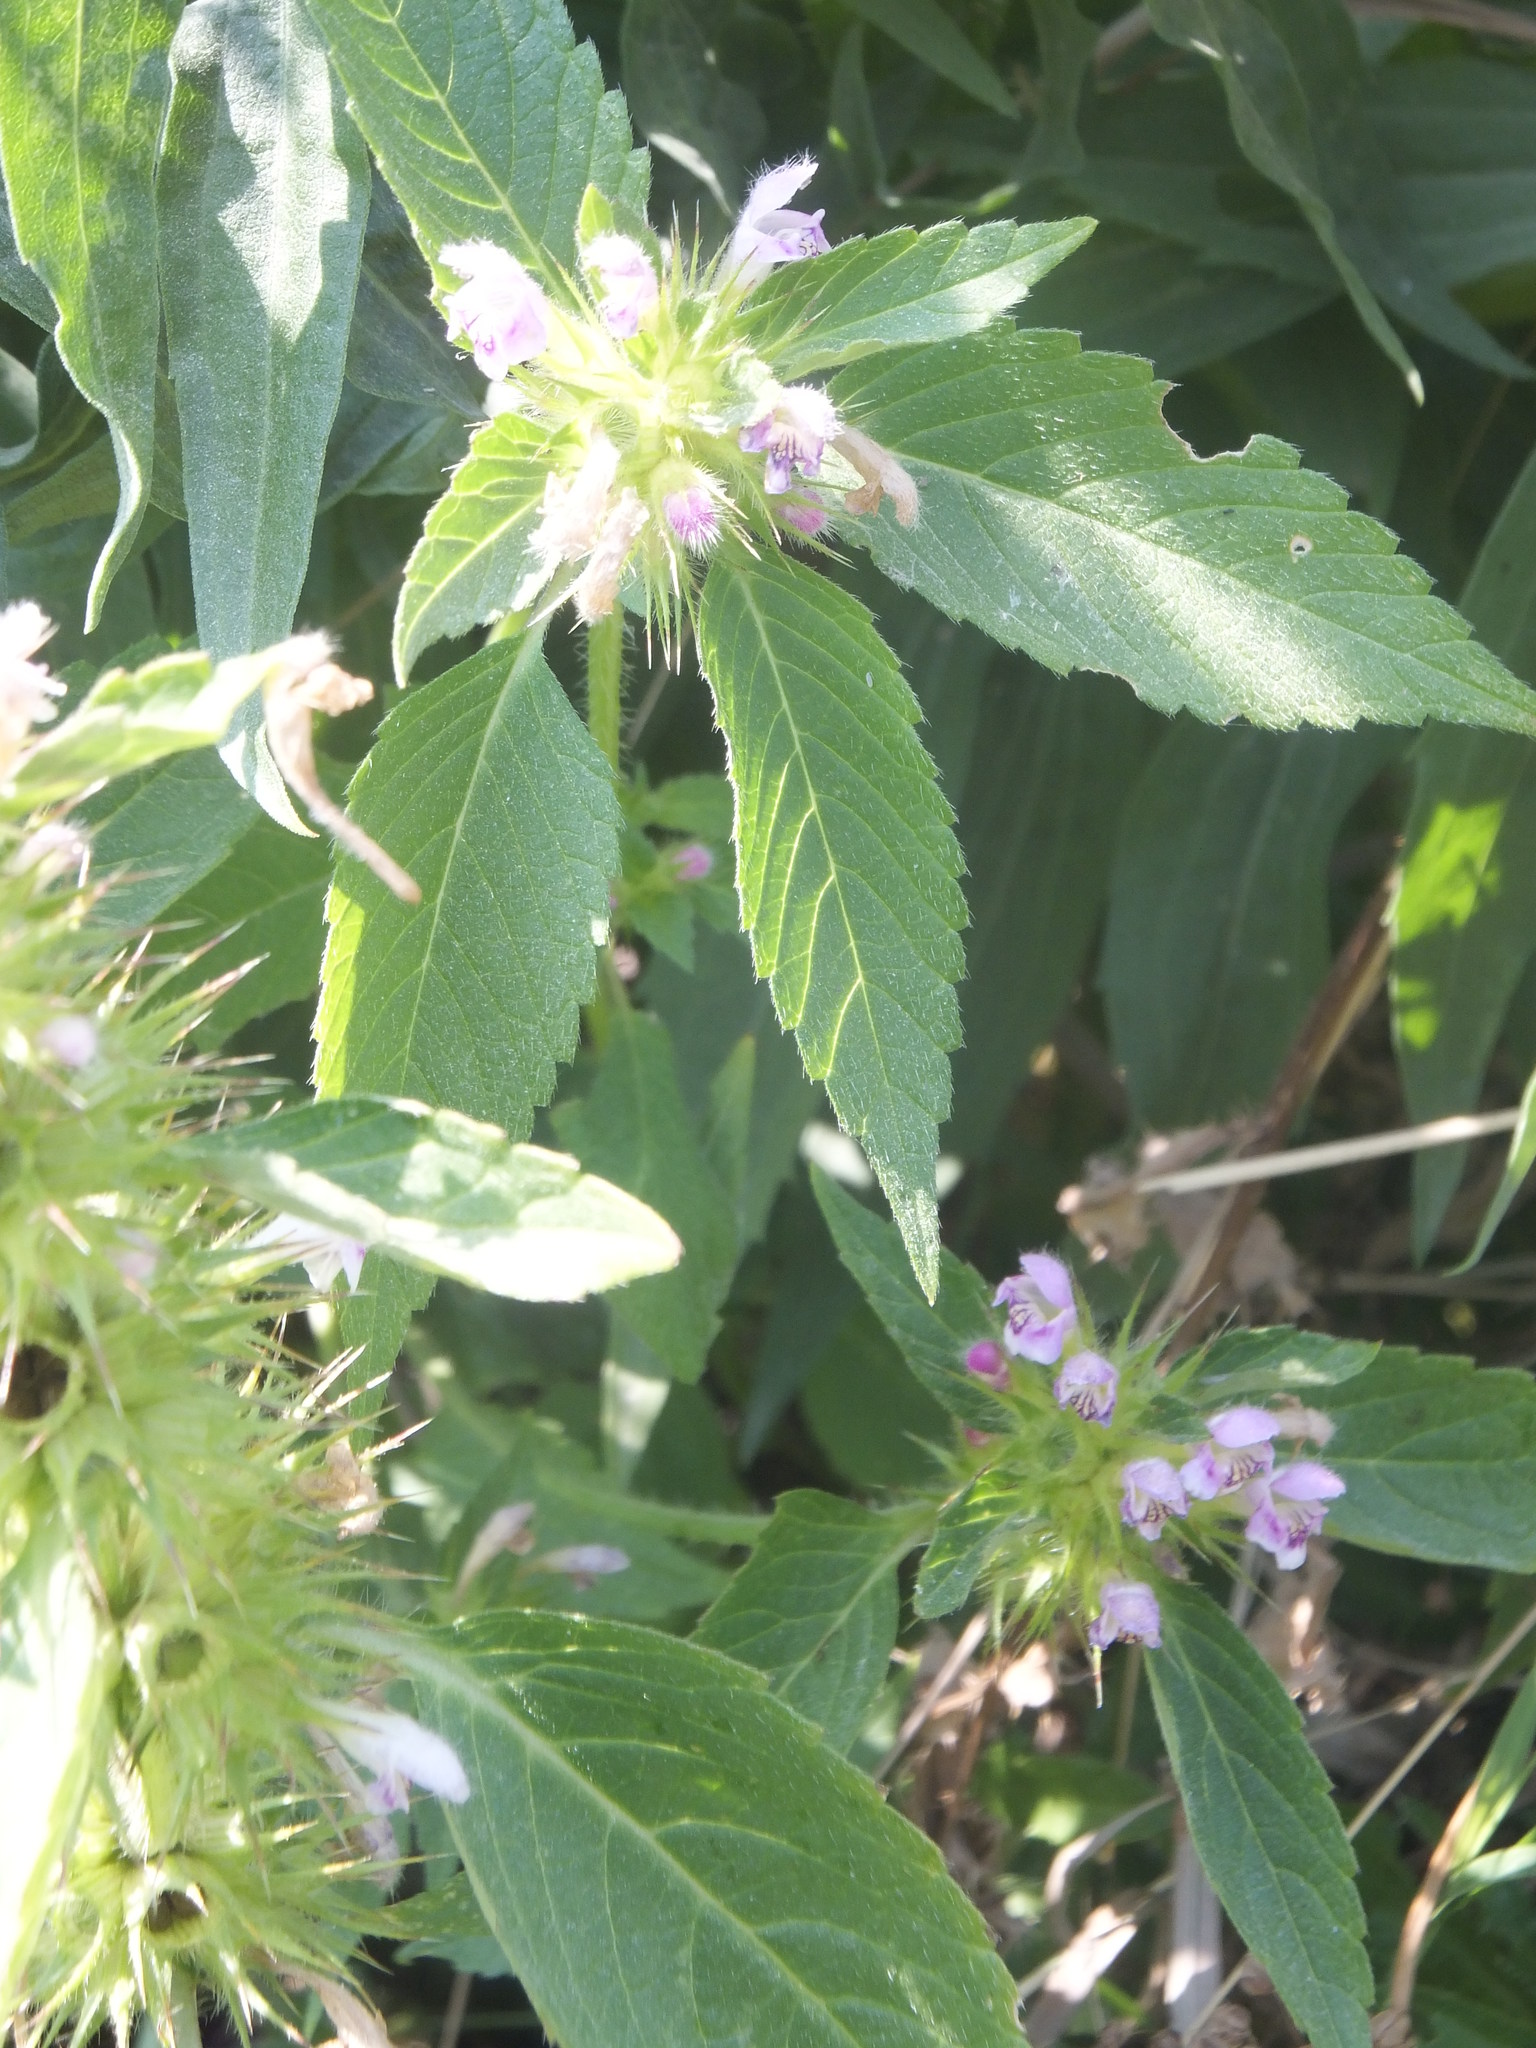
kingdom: Plantae
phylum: Tracheophyta
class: Magnoliopsida
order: Lamiales
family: Lamiaceae
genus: Galeopsis
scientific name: Galeopsis tetrahit
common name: Common hemp-nettle
